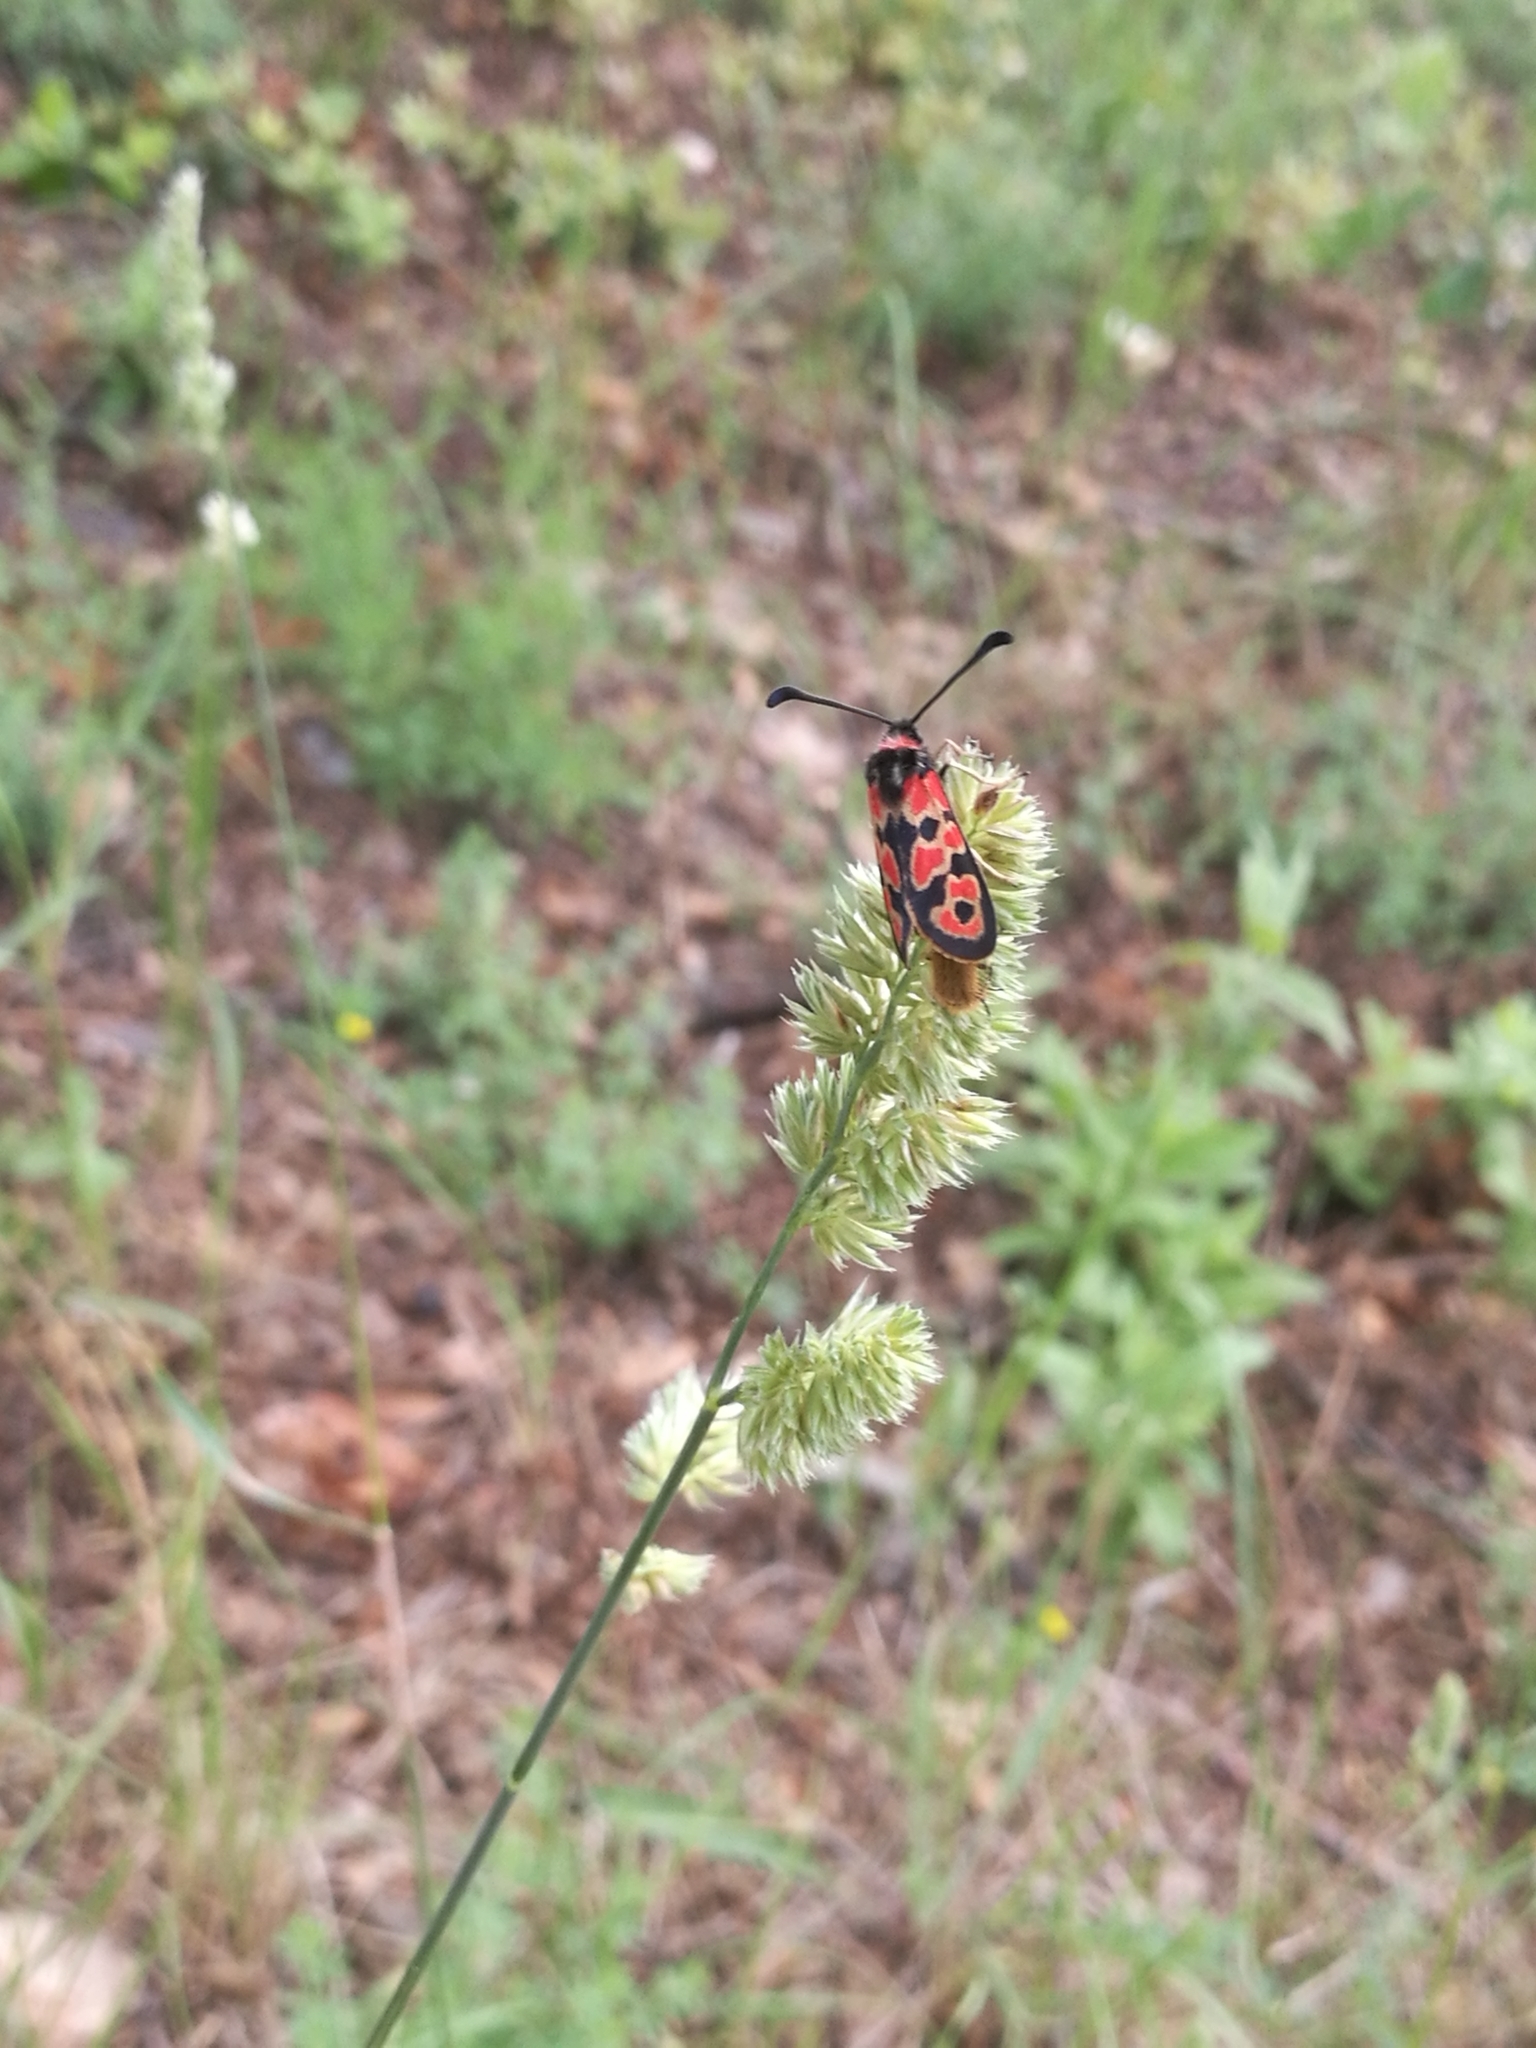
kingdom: Animalia
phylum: Arthropoda
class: Insecta
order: Lepidoptera
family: Zygaenidae
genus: Zygaena
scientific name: Zygaena fausta
